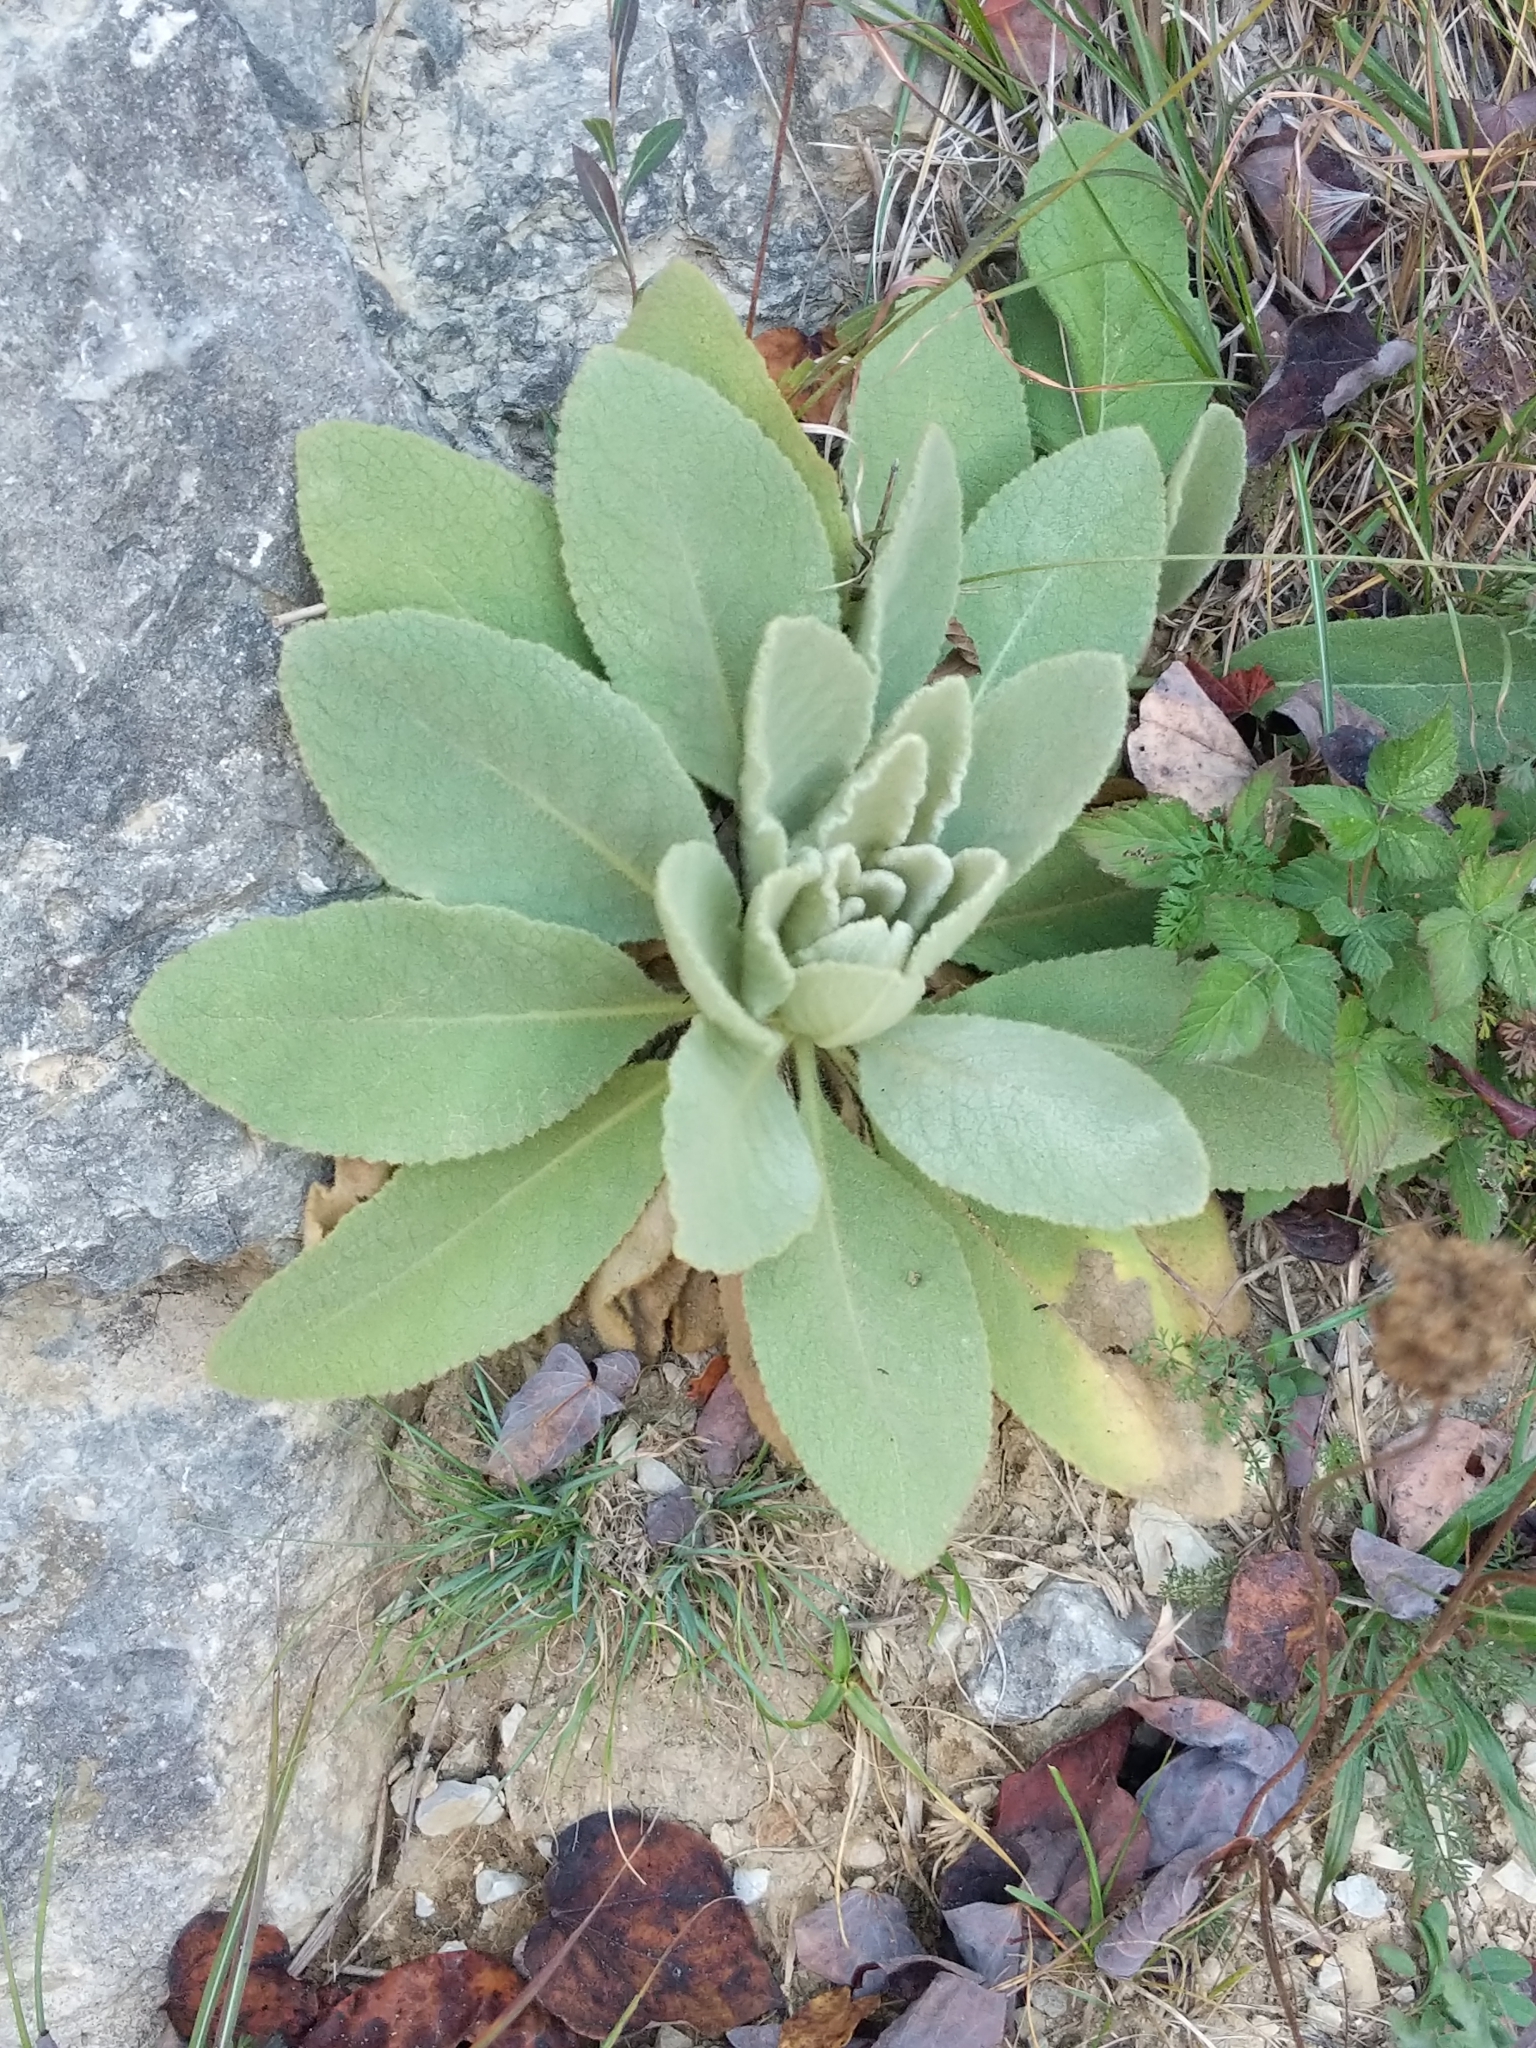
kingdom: Plantae
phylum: Tracheophyta
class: Magnoliopsida
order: Lamiales
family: Scrophulariaceae
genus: Verbascum
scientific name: Verbascum thapsus
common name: Common mullein
